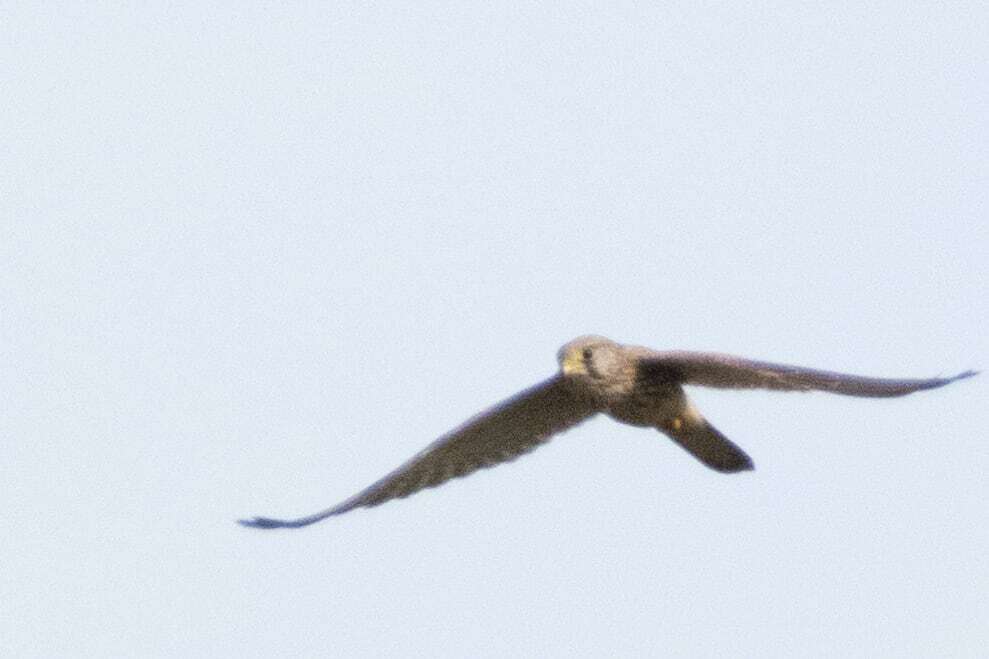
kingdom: Animalia
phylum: Chordata
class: Aves
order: Falconiformes
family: Falconidae
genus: Falco
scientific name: Falco tinnunculus
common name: Common kestrel
